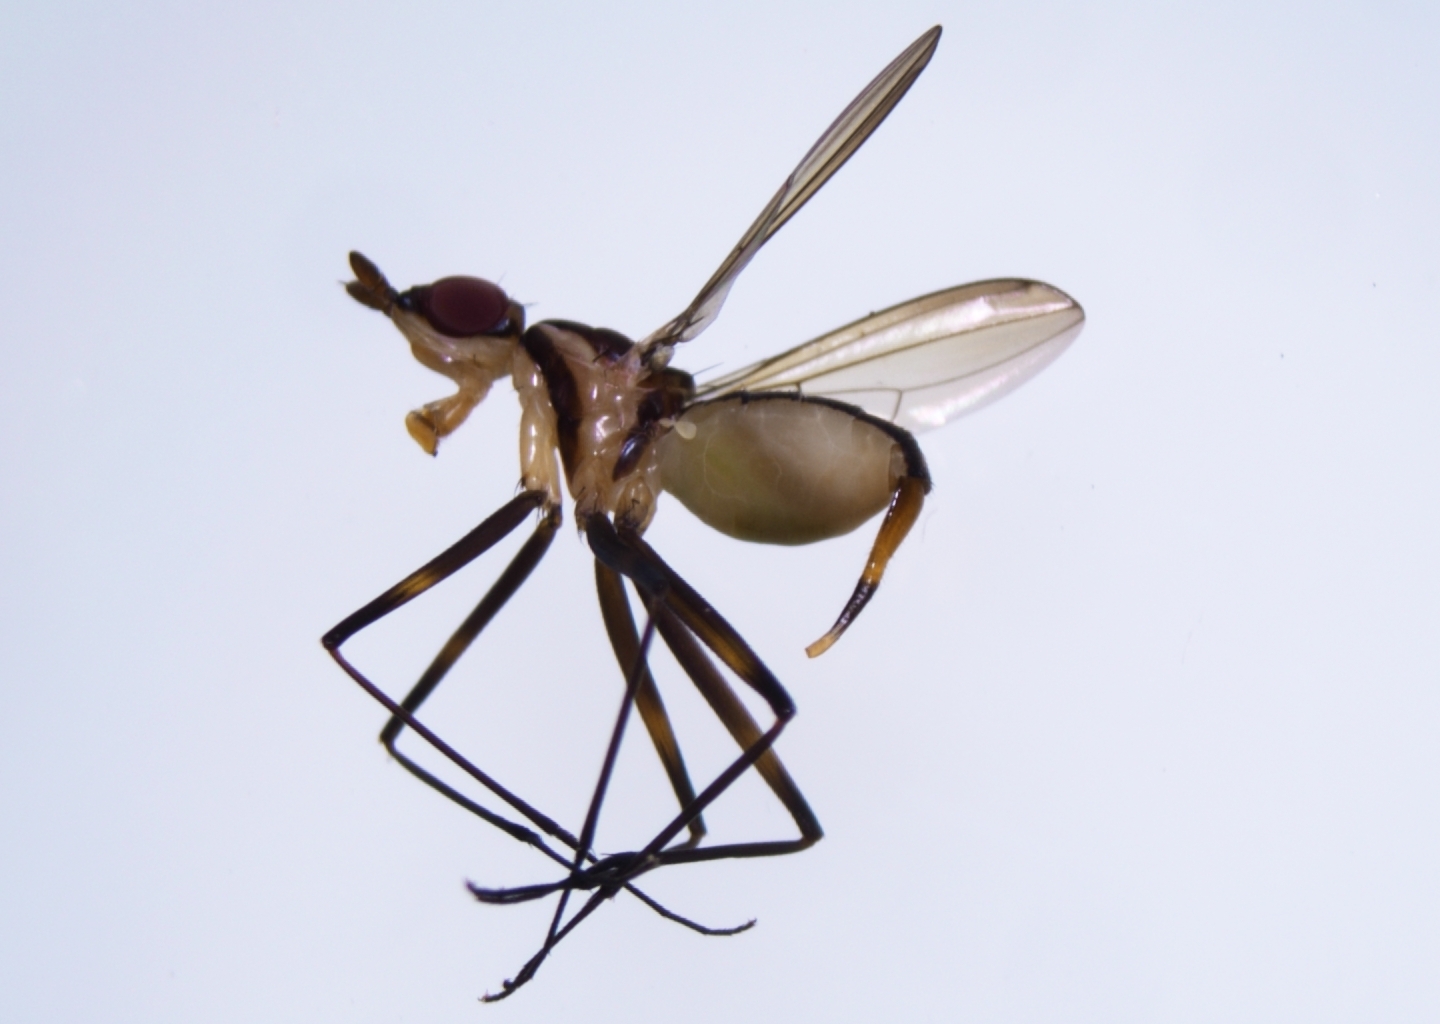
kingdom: Animalia
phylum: Arthropoda
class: Insecta
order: Diptera
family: Neriidae
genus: Telostylinus
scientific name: Telostylinus lineolatus
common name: Banana stalk fly
